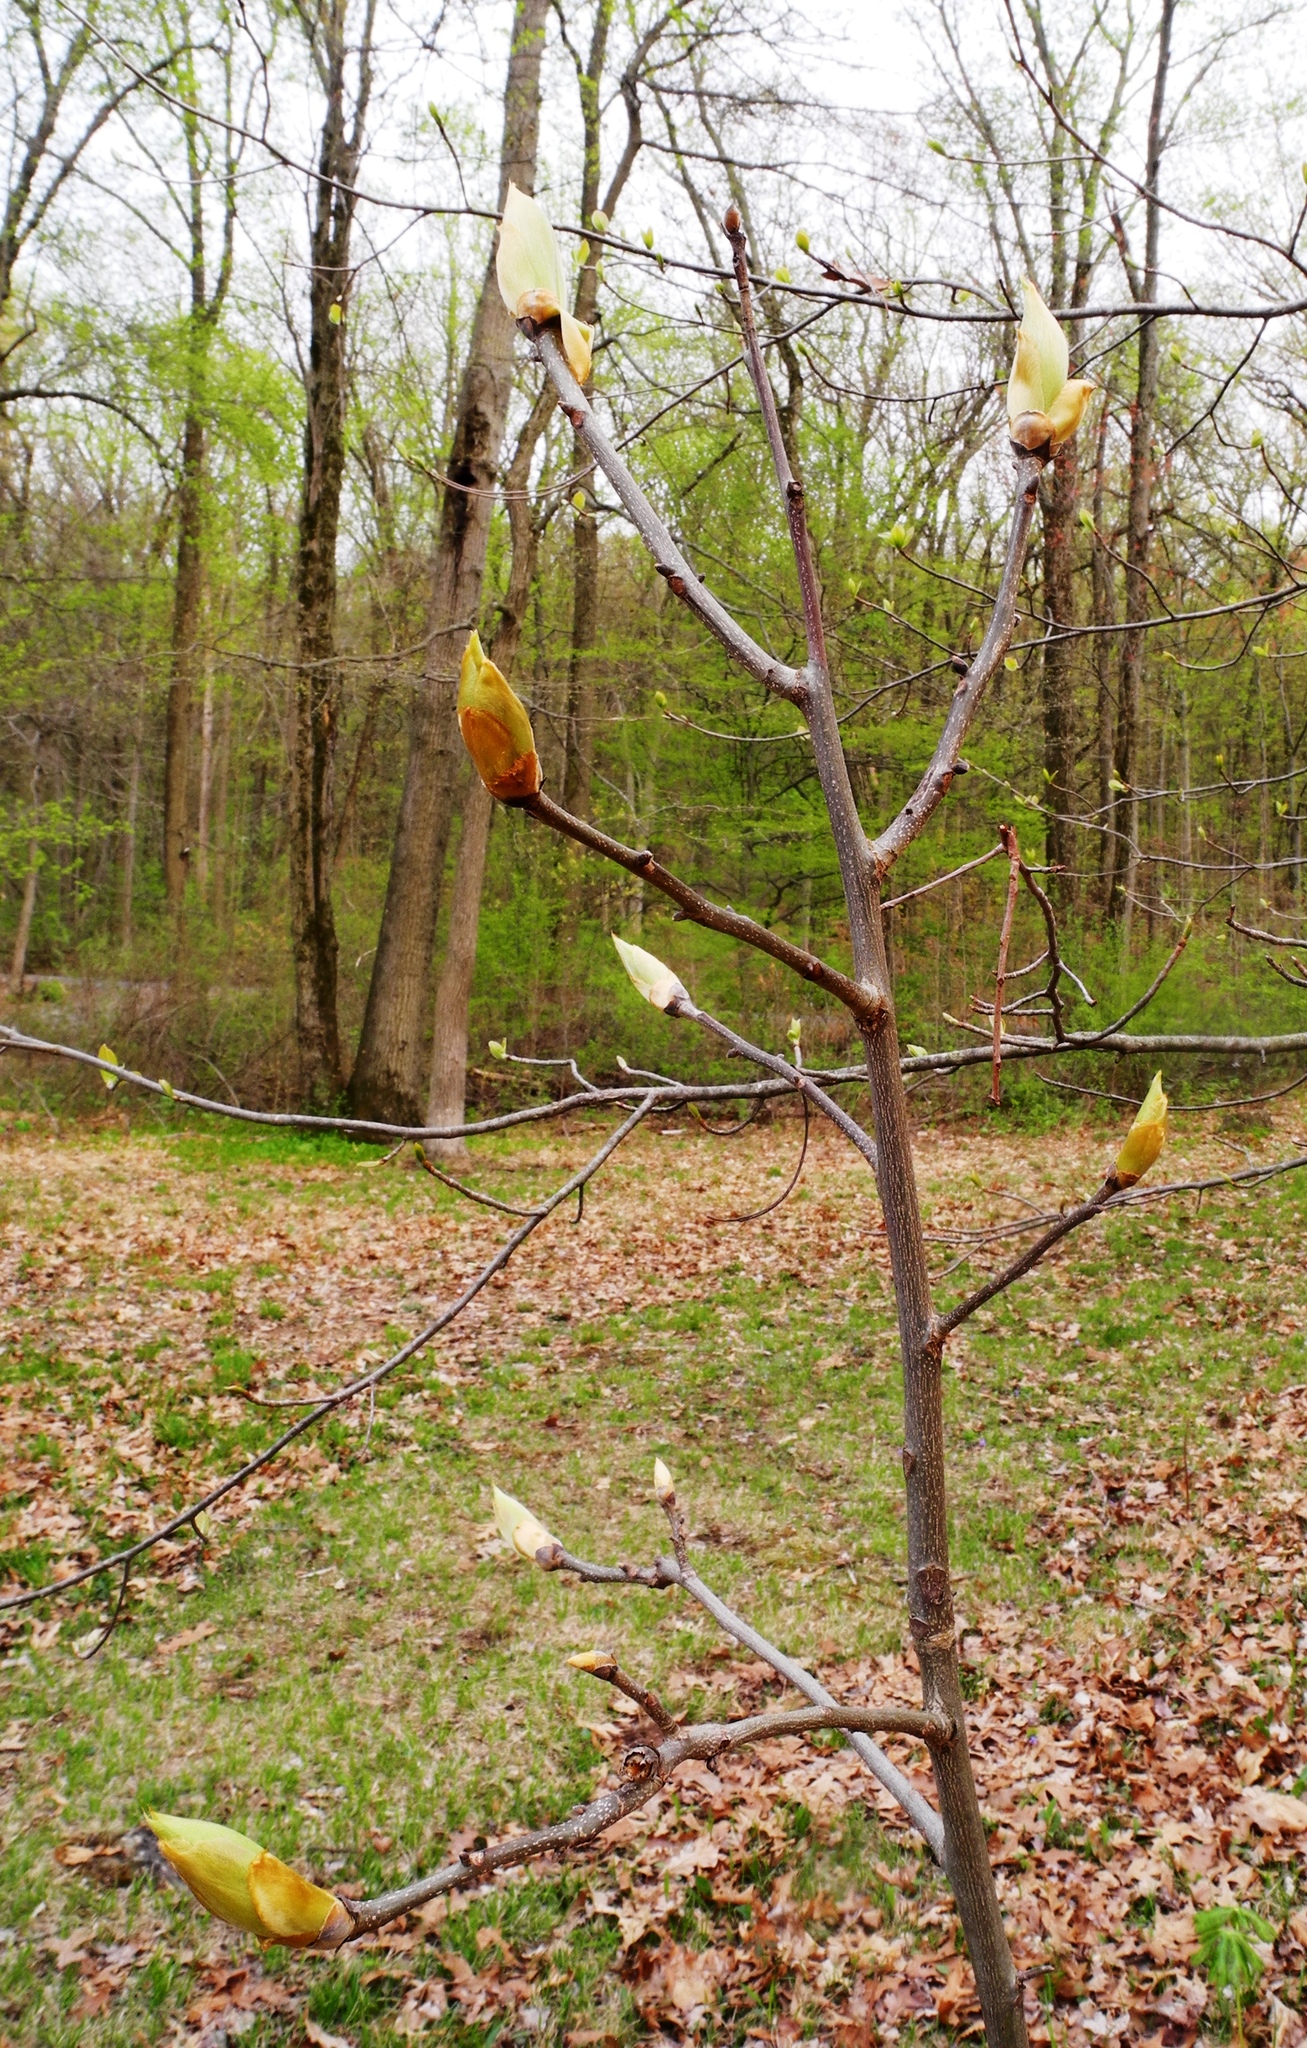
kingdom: Plantae
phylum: Tracheophyta
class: Magnoliopsida
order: Fagales
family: Juglandaceae
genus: Carya
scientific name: Carya ovata
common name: Shagbark hickory
